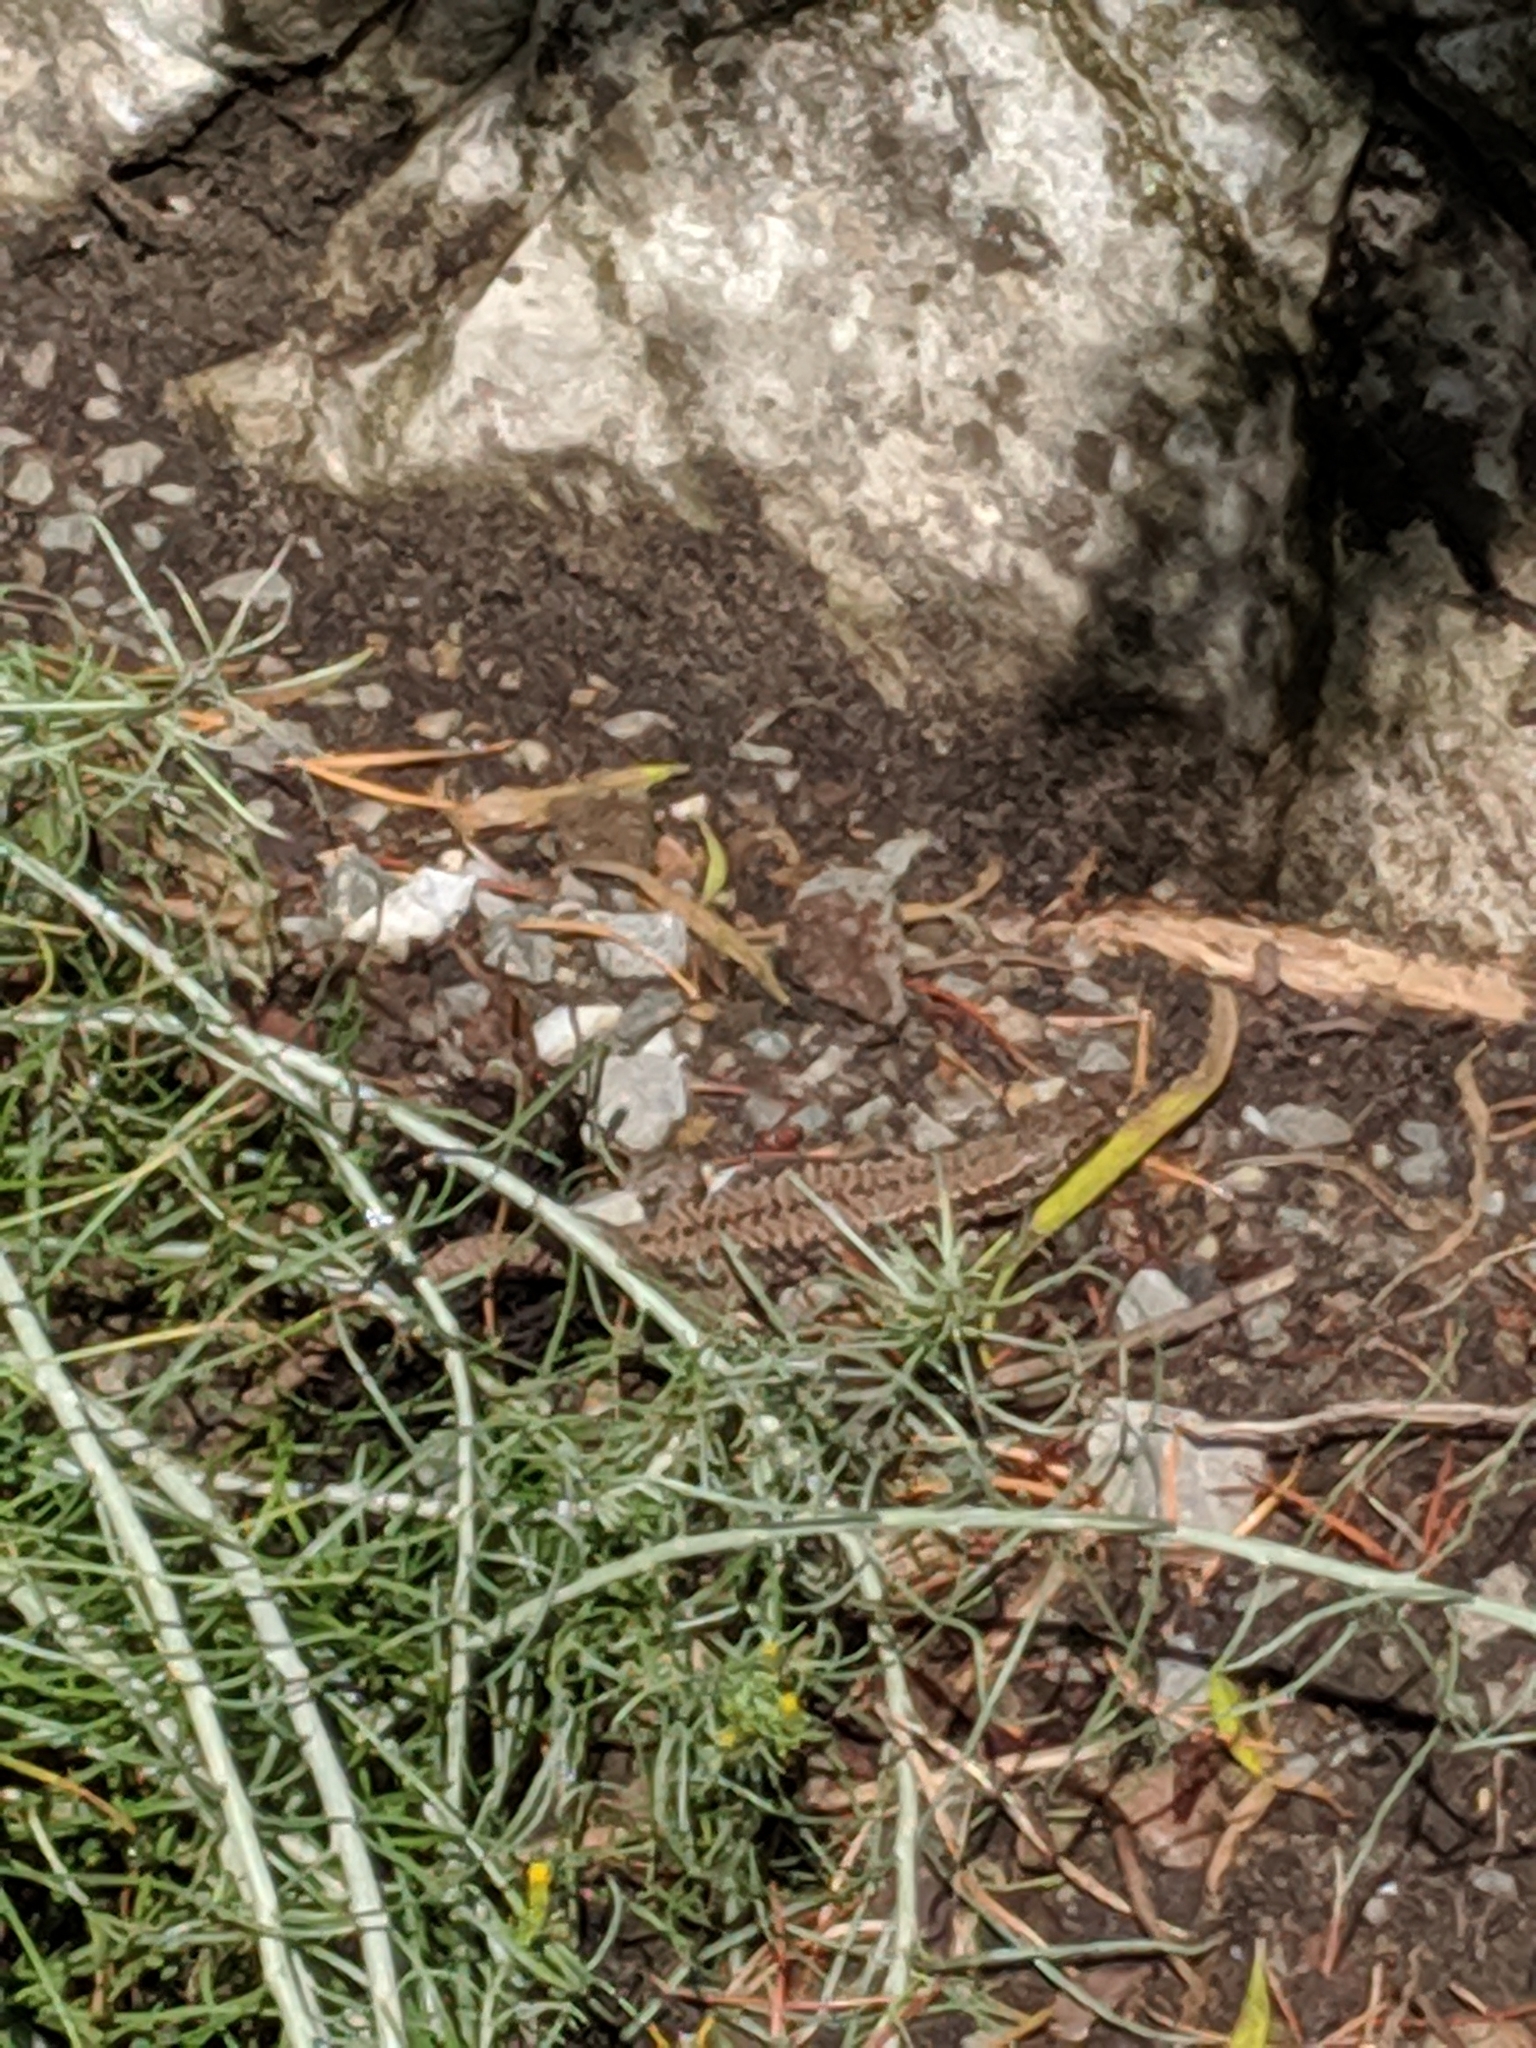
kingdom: Animalia
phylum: Chordata
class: Squamata
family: Lacertidae
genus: Podarcis
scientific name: Podarcis muralis
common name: Common wall lizard
